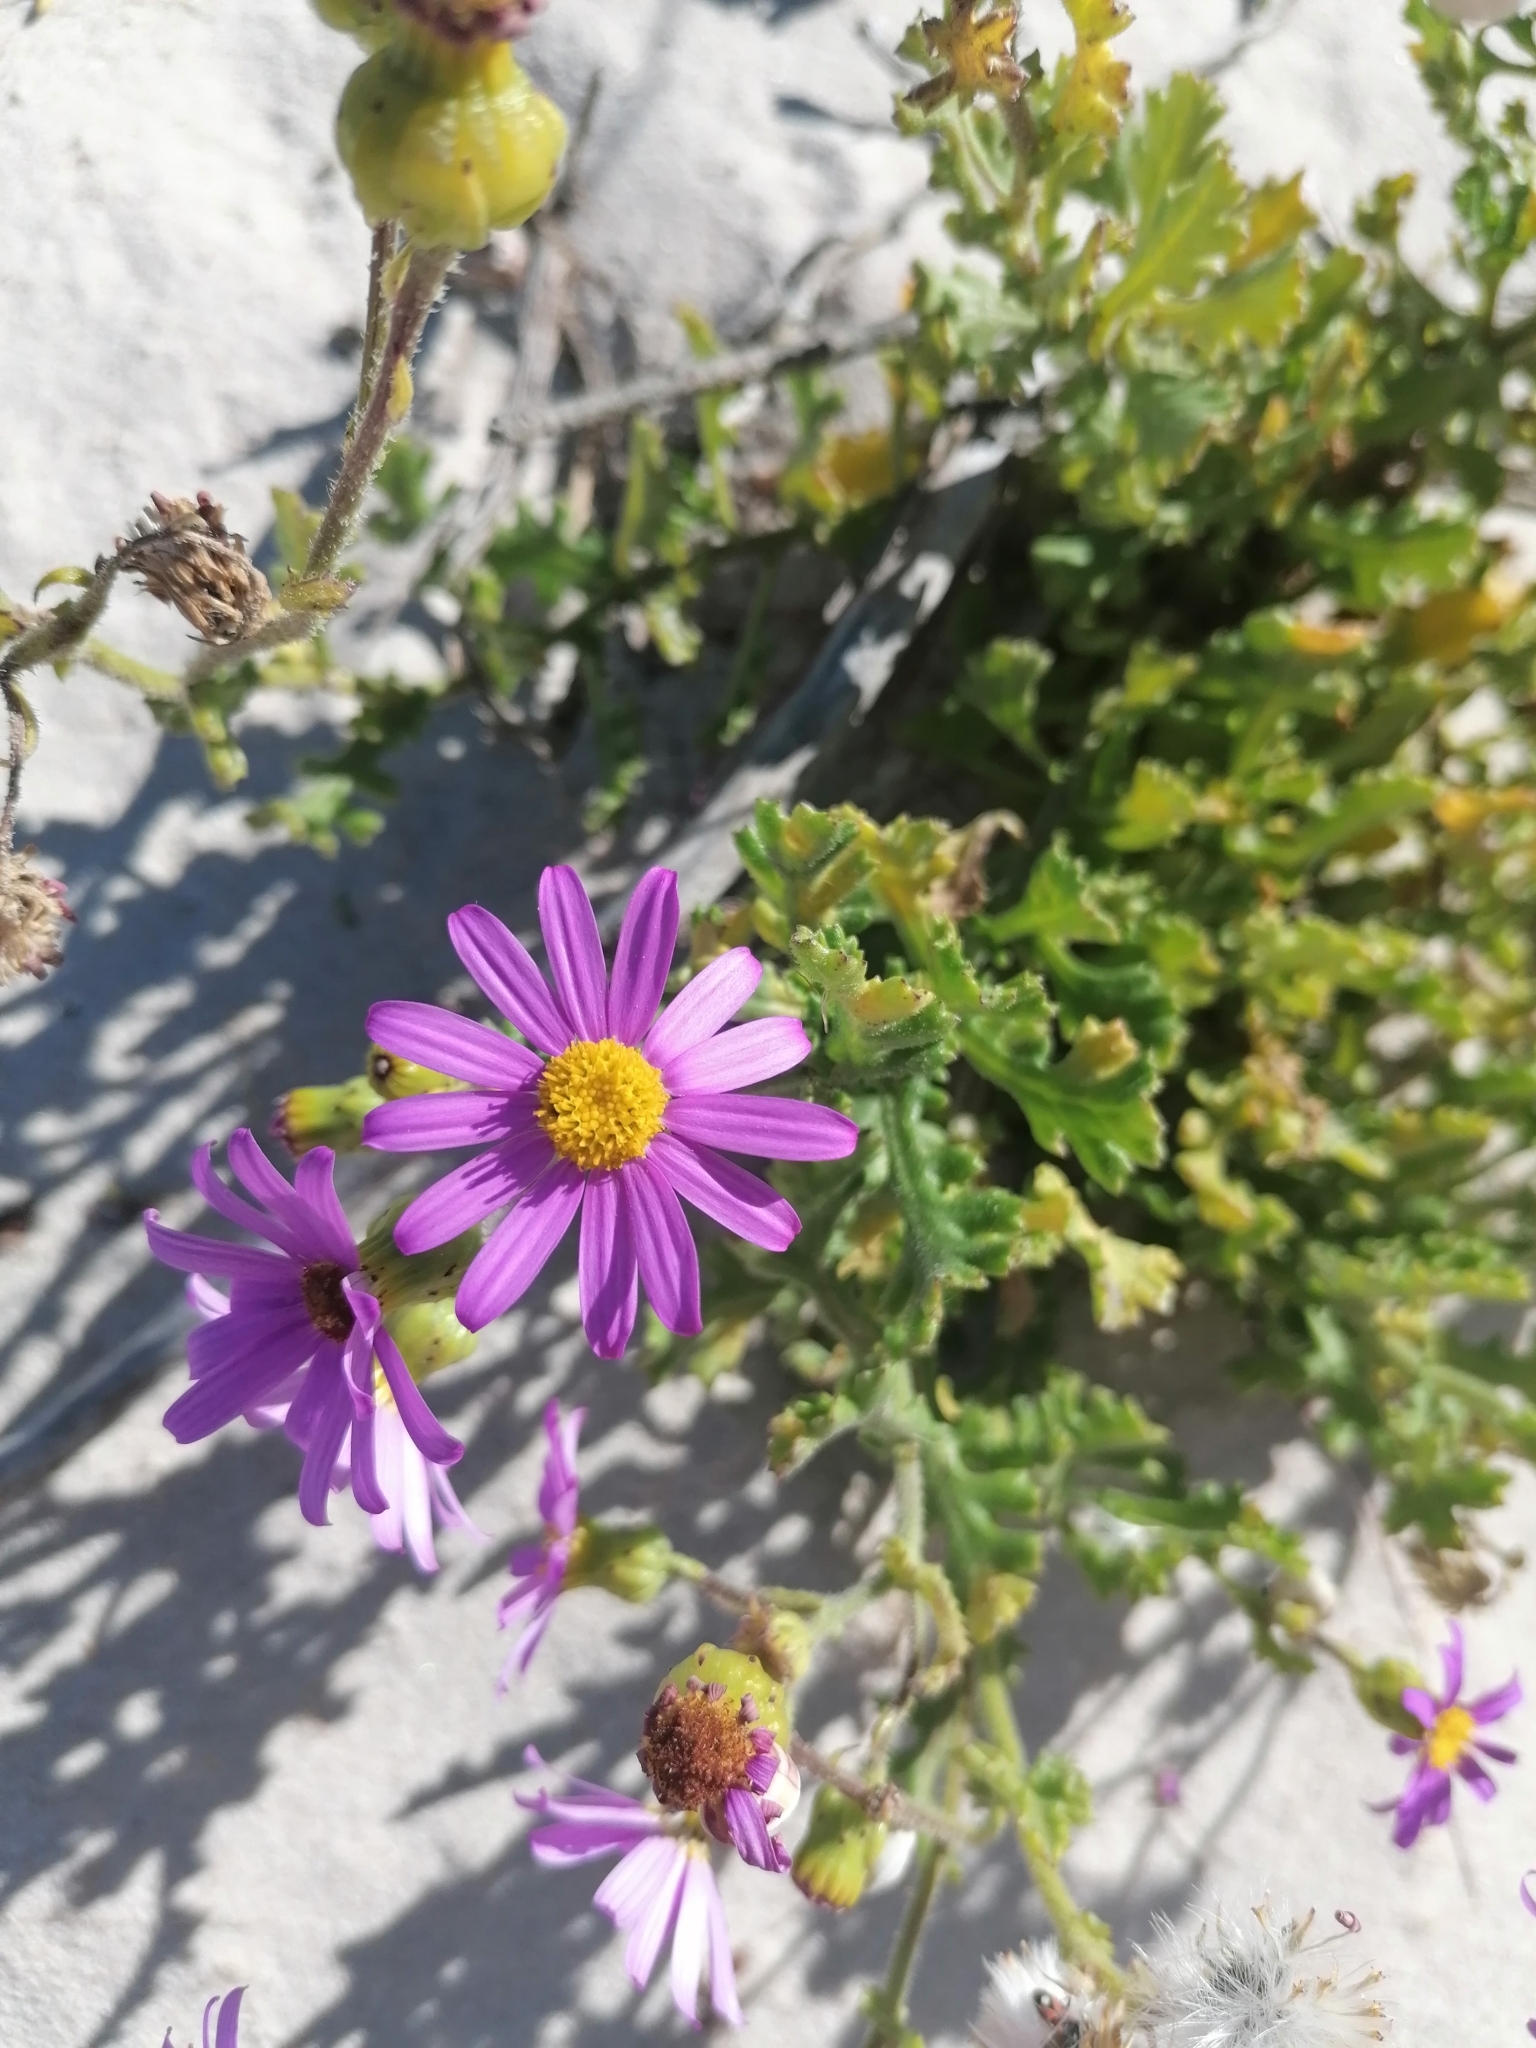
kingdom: Plantae
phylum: Tracheophyta
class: Magnoliopsida
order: Asterales
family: Asteraceae
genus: Senecio
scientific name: Senecio arenarius
